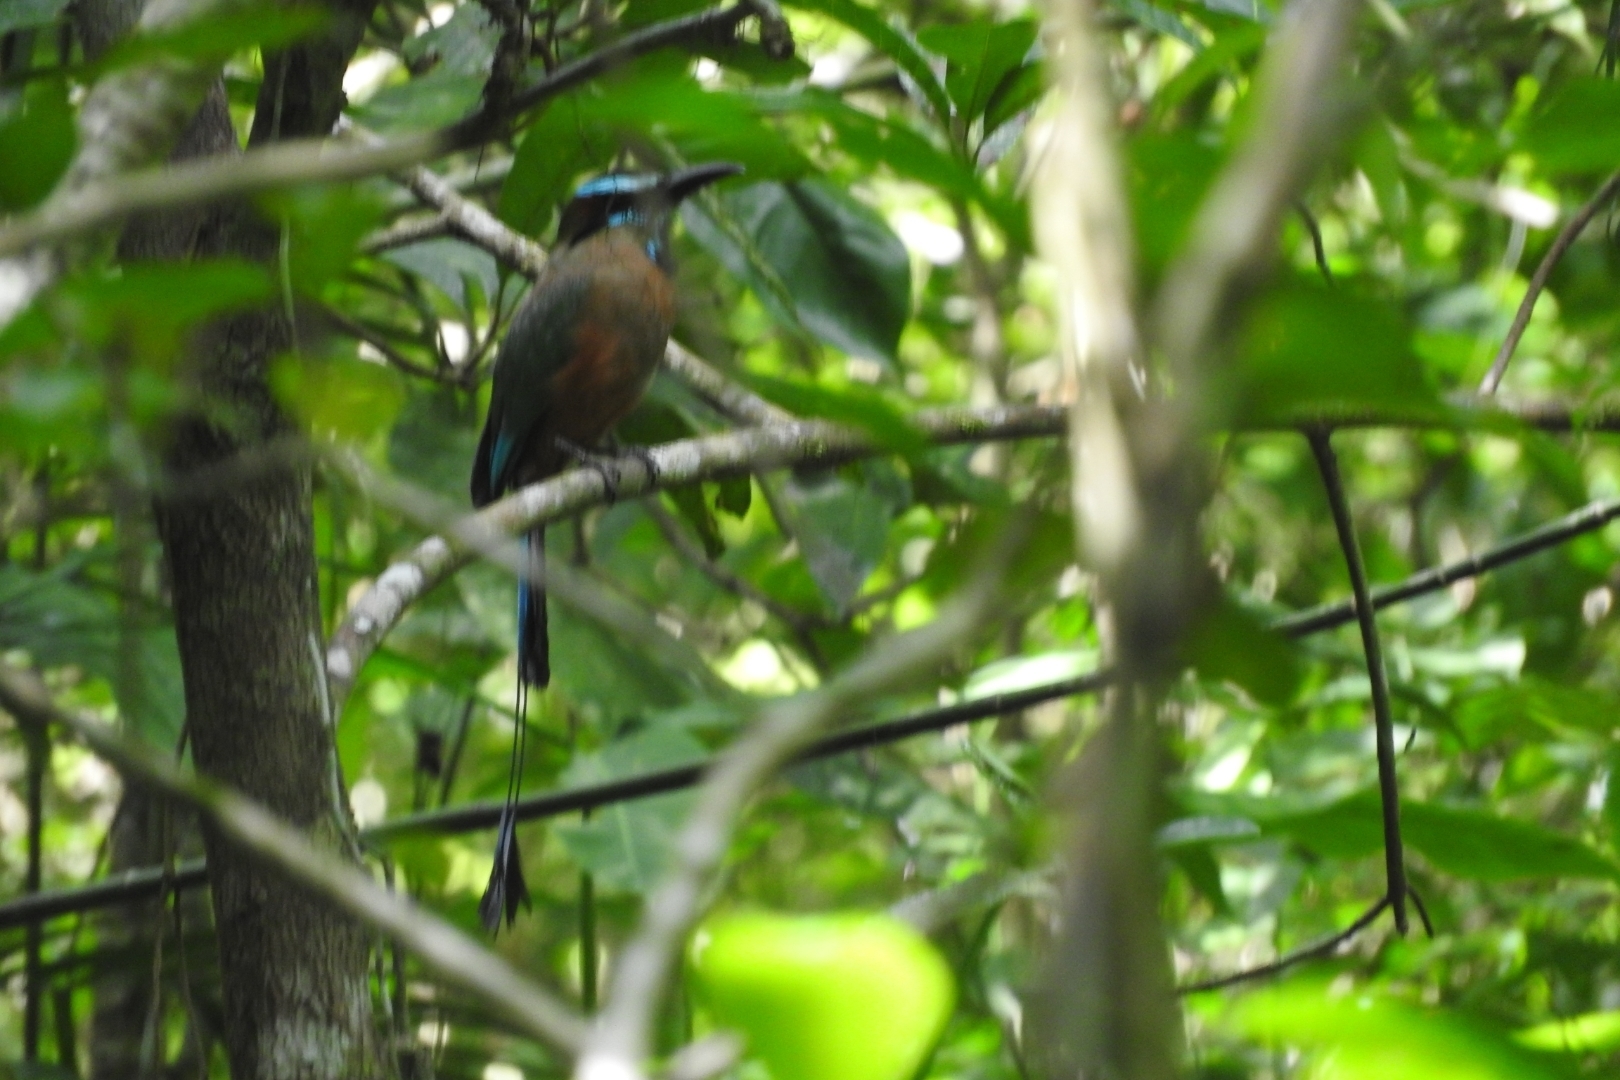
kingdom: Animalia
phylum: Chordata
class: Aves
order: Coraciiformes
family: Momotidae
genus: Eumomota
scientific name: Eumomota superciliosa
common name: Turquoise-browed motmot
